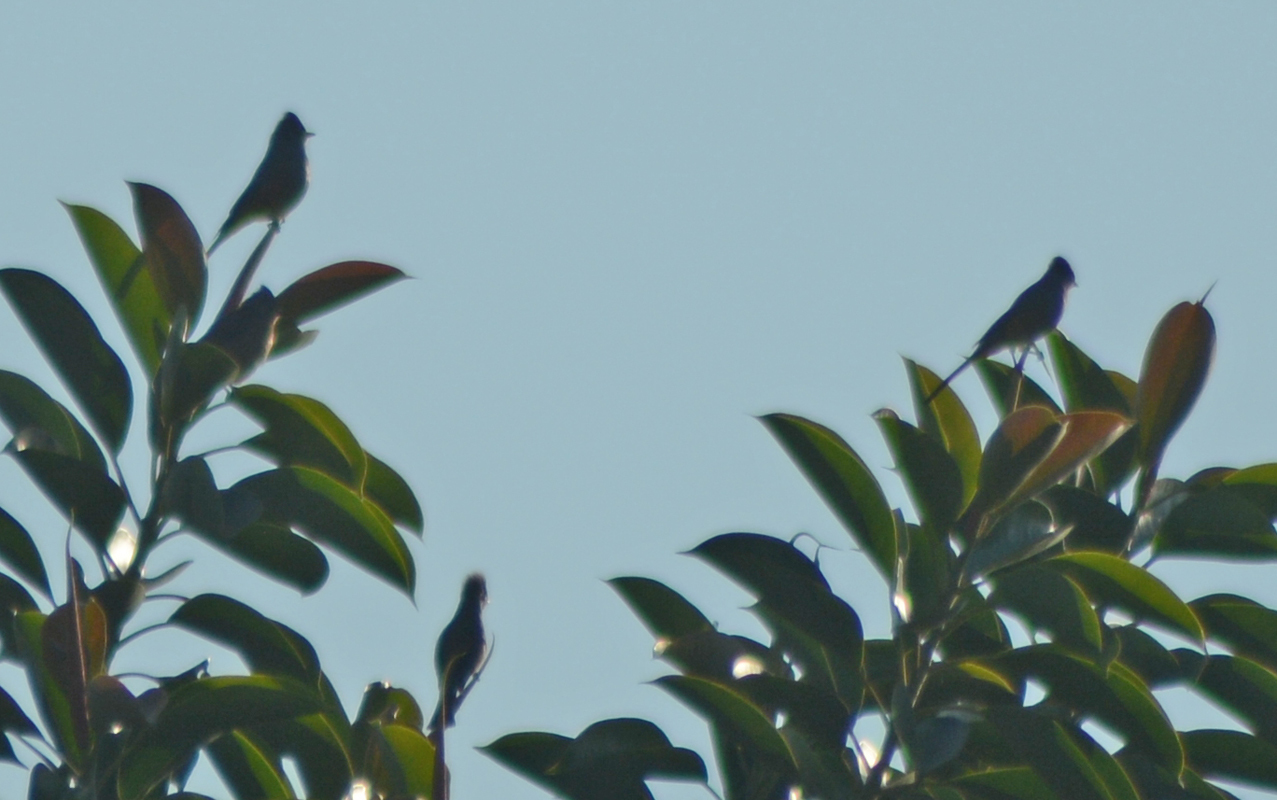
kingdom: Animalia
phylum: Chordata
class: Aves
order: Passeriformes
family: Ptilogonatidae
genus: Ptilogonys
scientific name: Ptilogonys cinereus
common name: Gray silky-flycatcher
